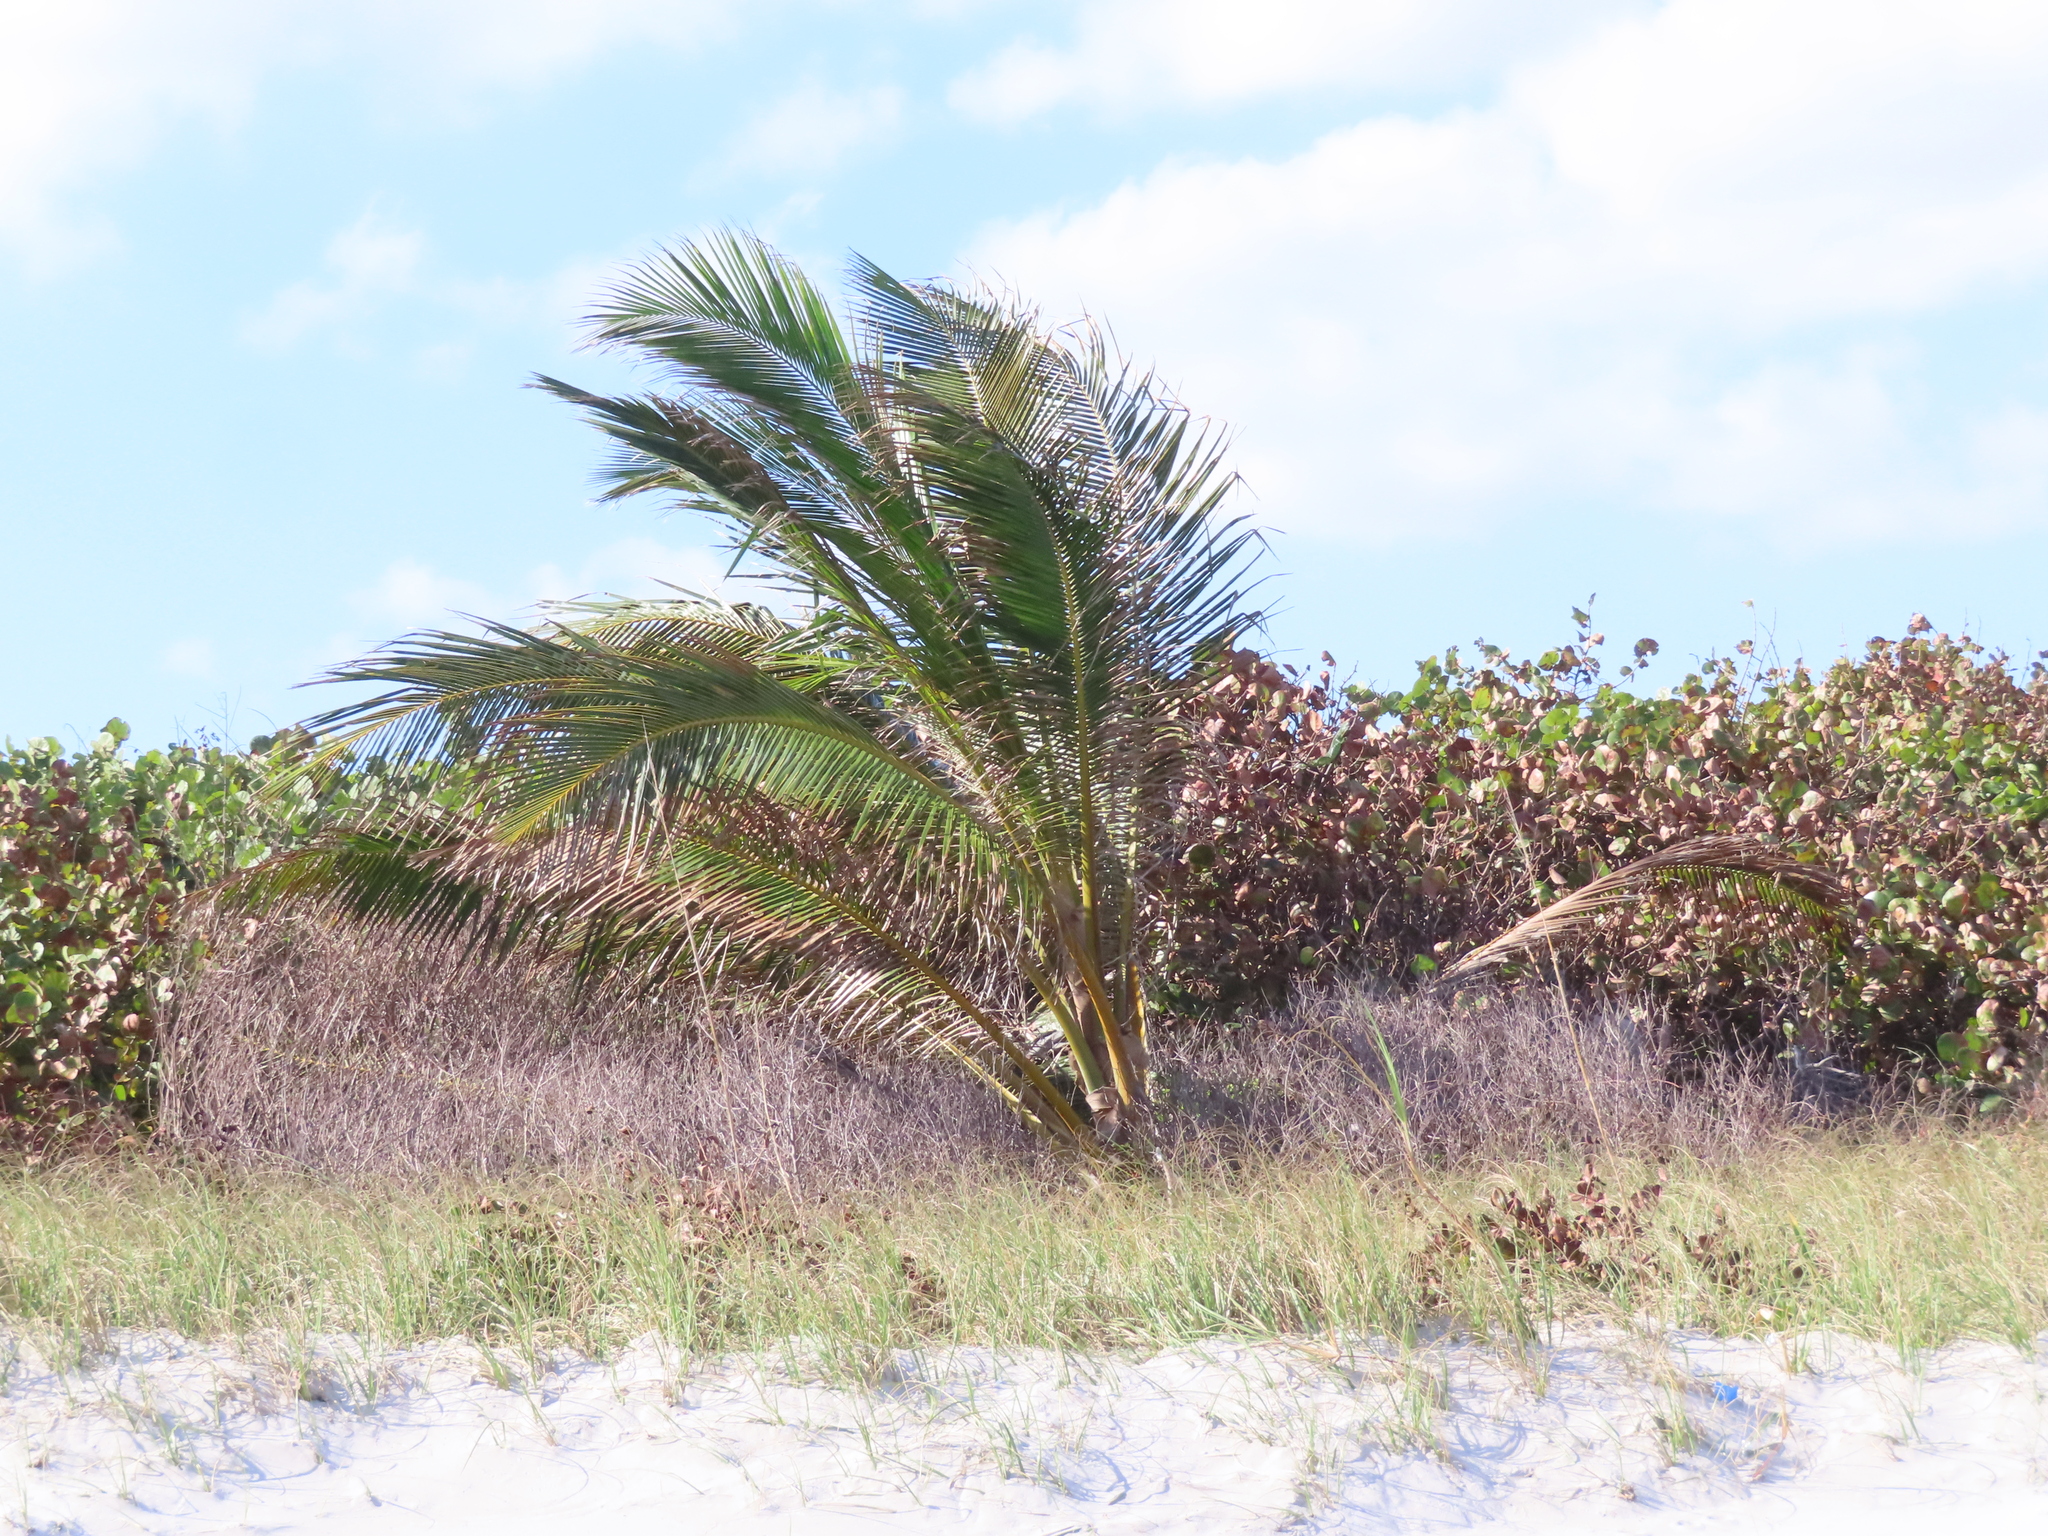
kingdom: Plantae
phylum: Tracheophyta
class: Liliopsida
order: Arecales
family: Arecaceae
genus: Cocos
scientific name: Cocos nucifera
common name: Coconut palm
